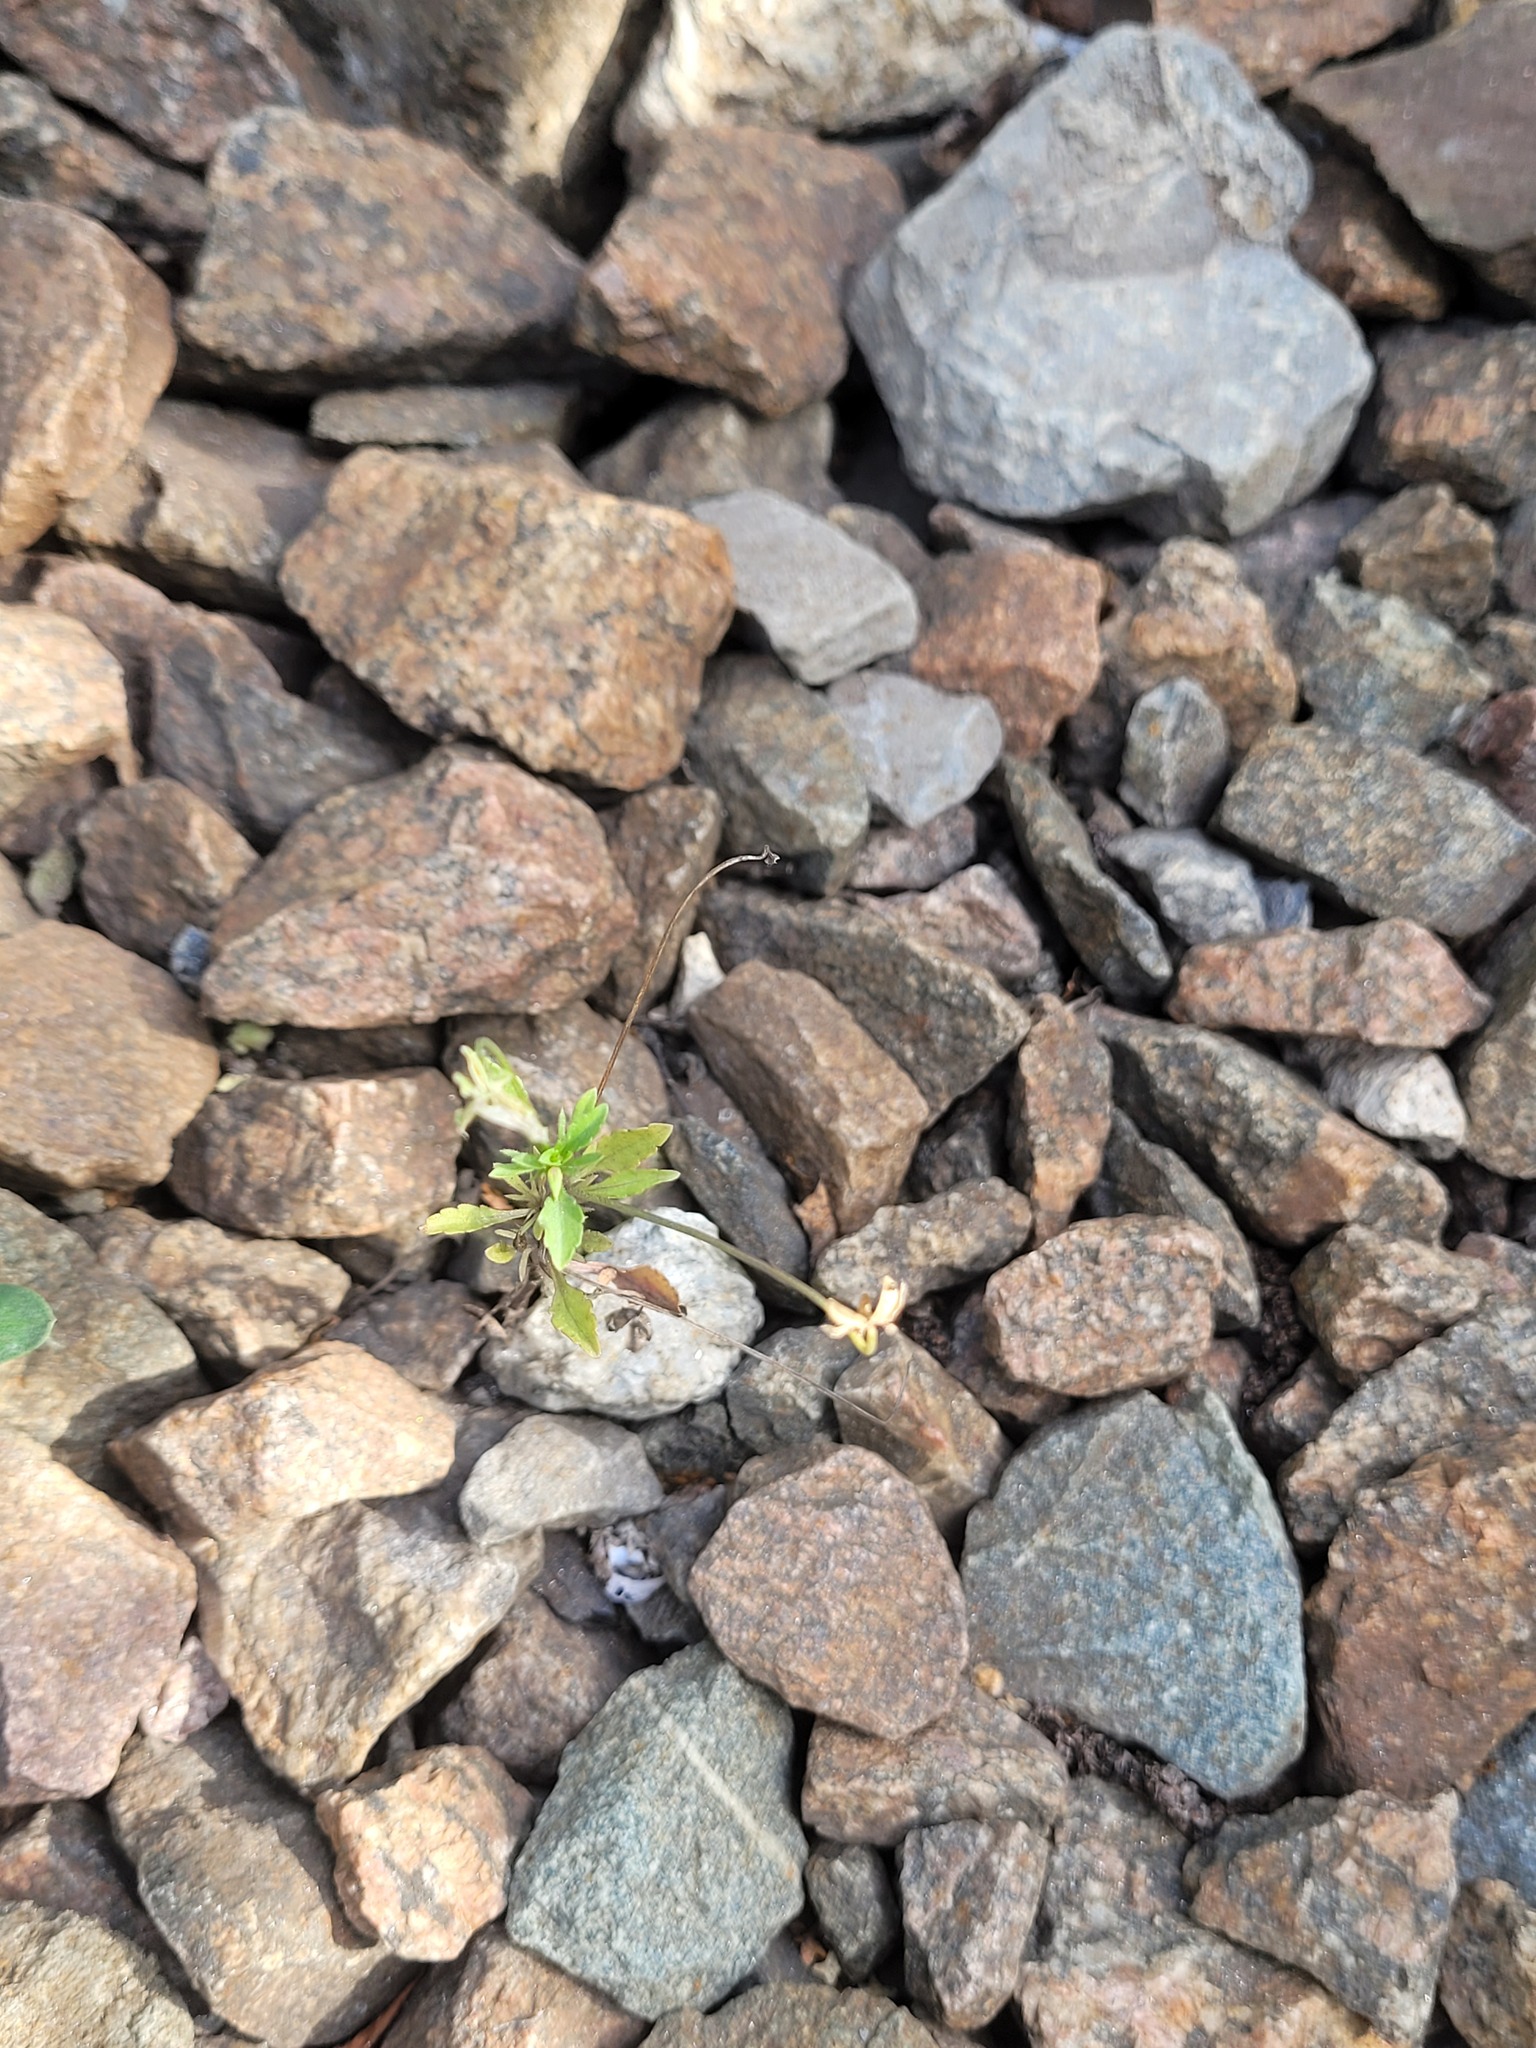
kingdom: Plantae
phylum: Tracheophyta
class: Magnoliopsida
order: Malpighiales
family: Violaceae
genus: Viola
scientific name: Viola arvensis
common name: Field pansy
